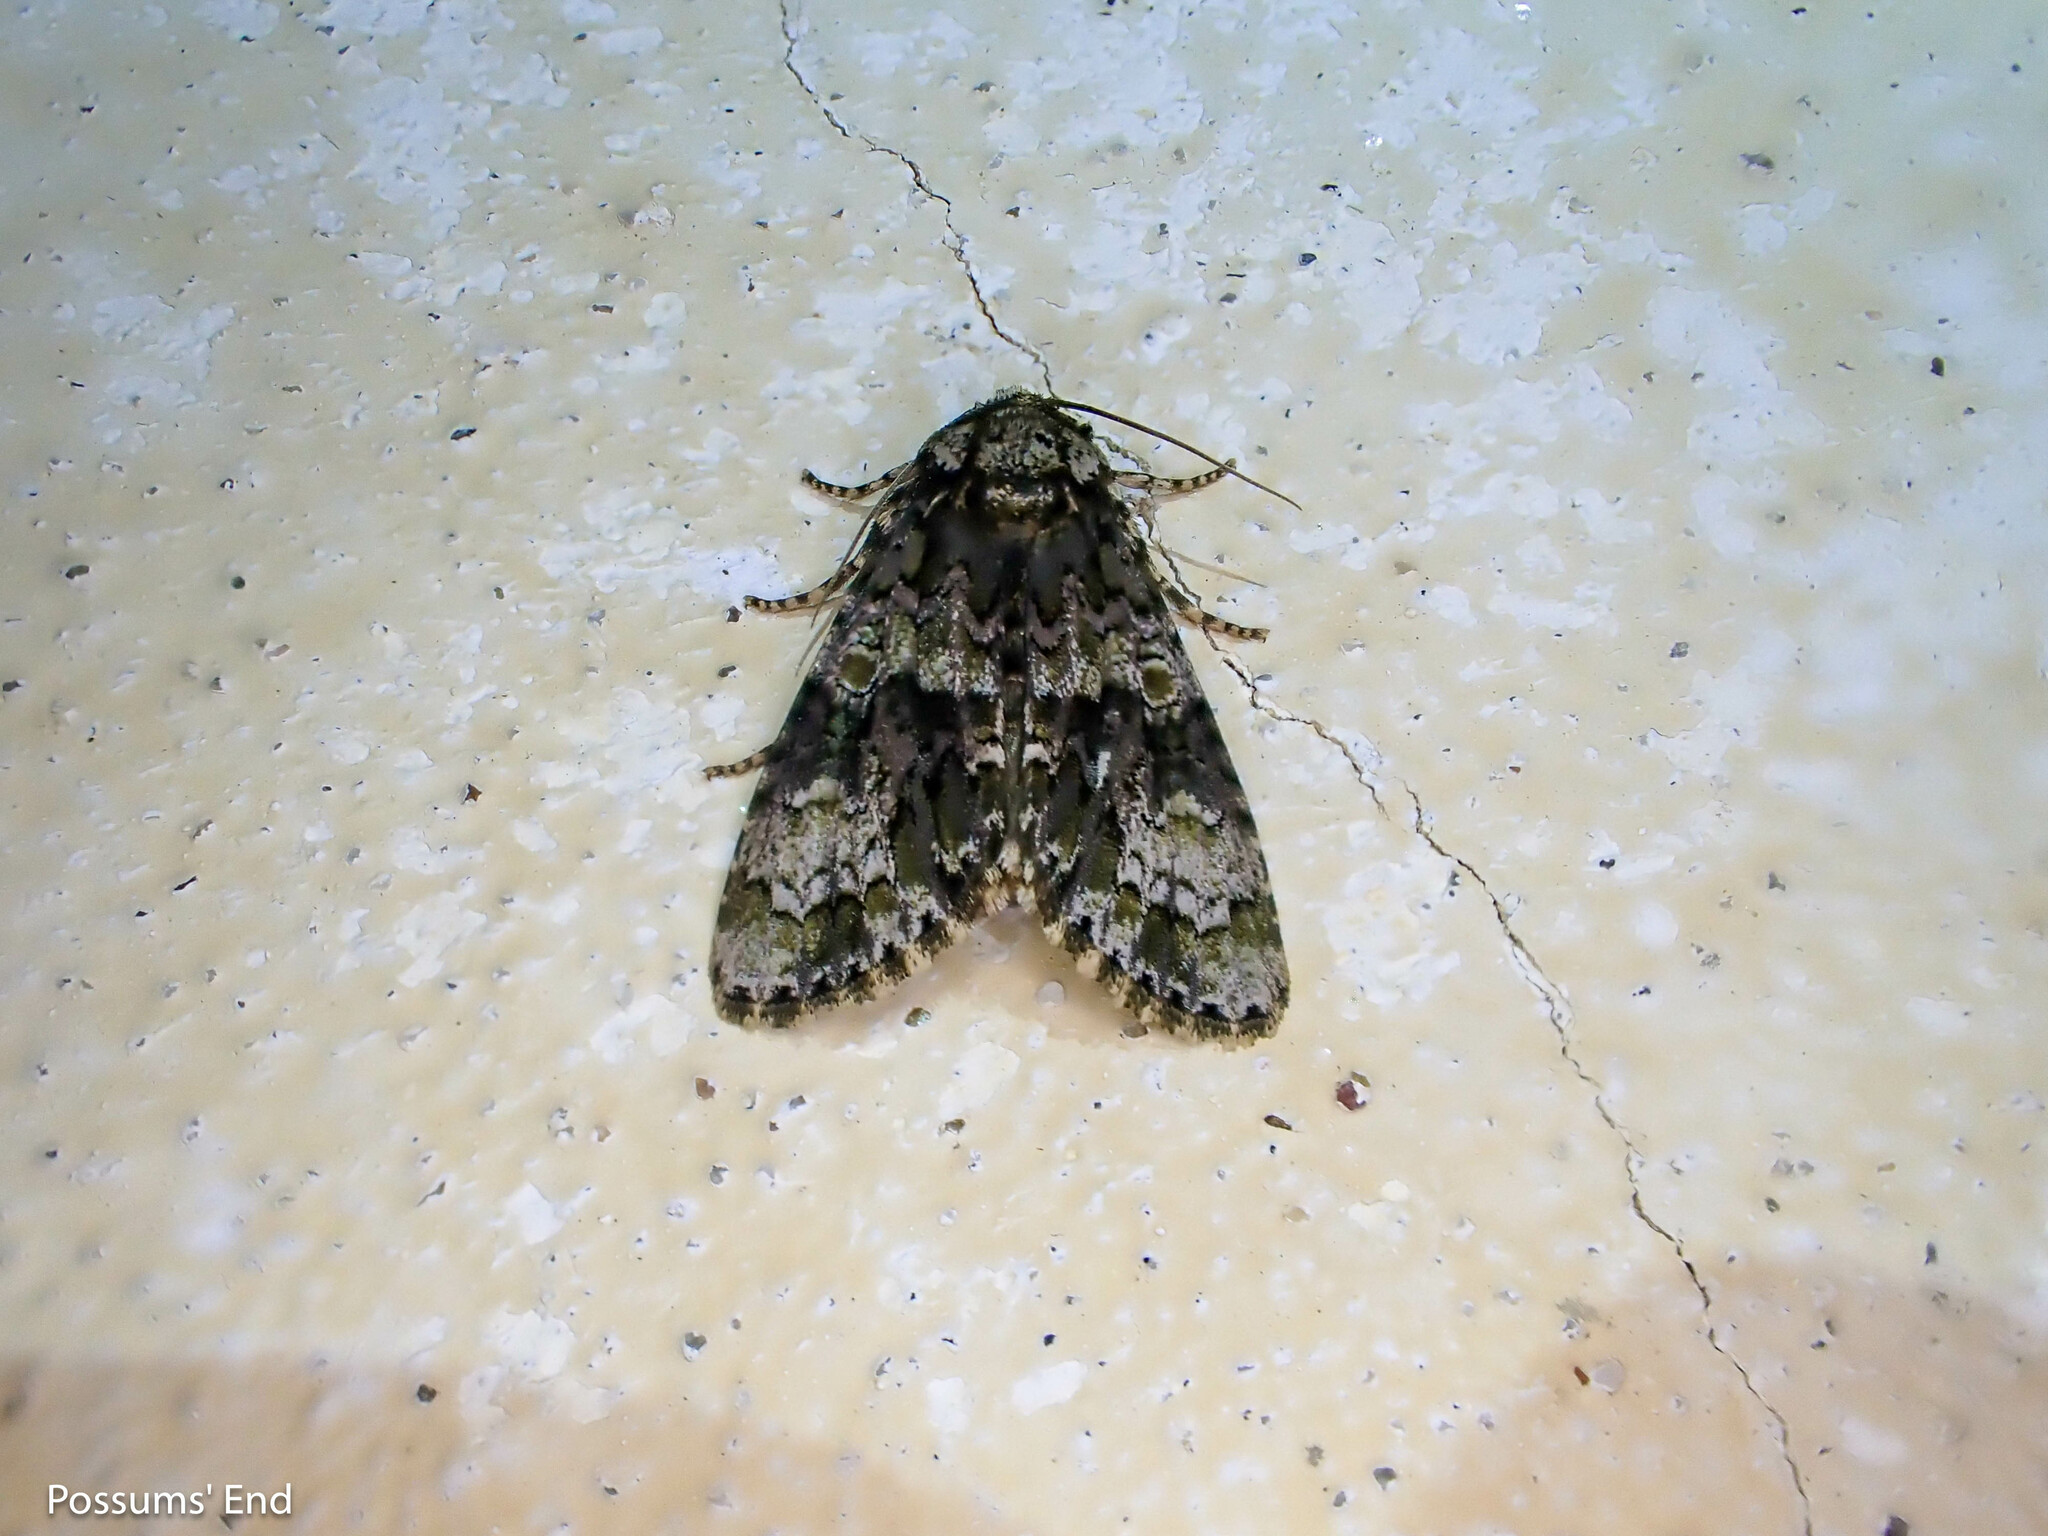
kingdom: Animalia
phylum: Arthropoda
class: Insecta
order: Lepidoptera
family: Noctuidae
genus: Craniophora
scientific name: Craniophora ligustri
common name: Coronet
